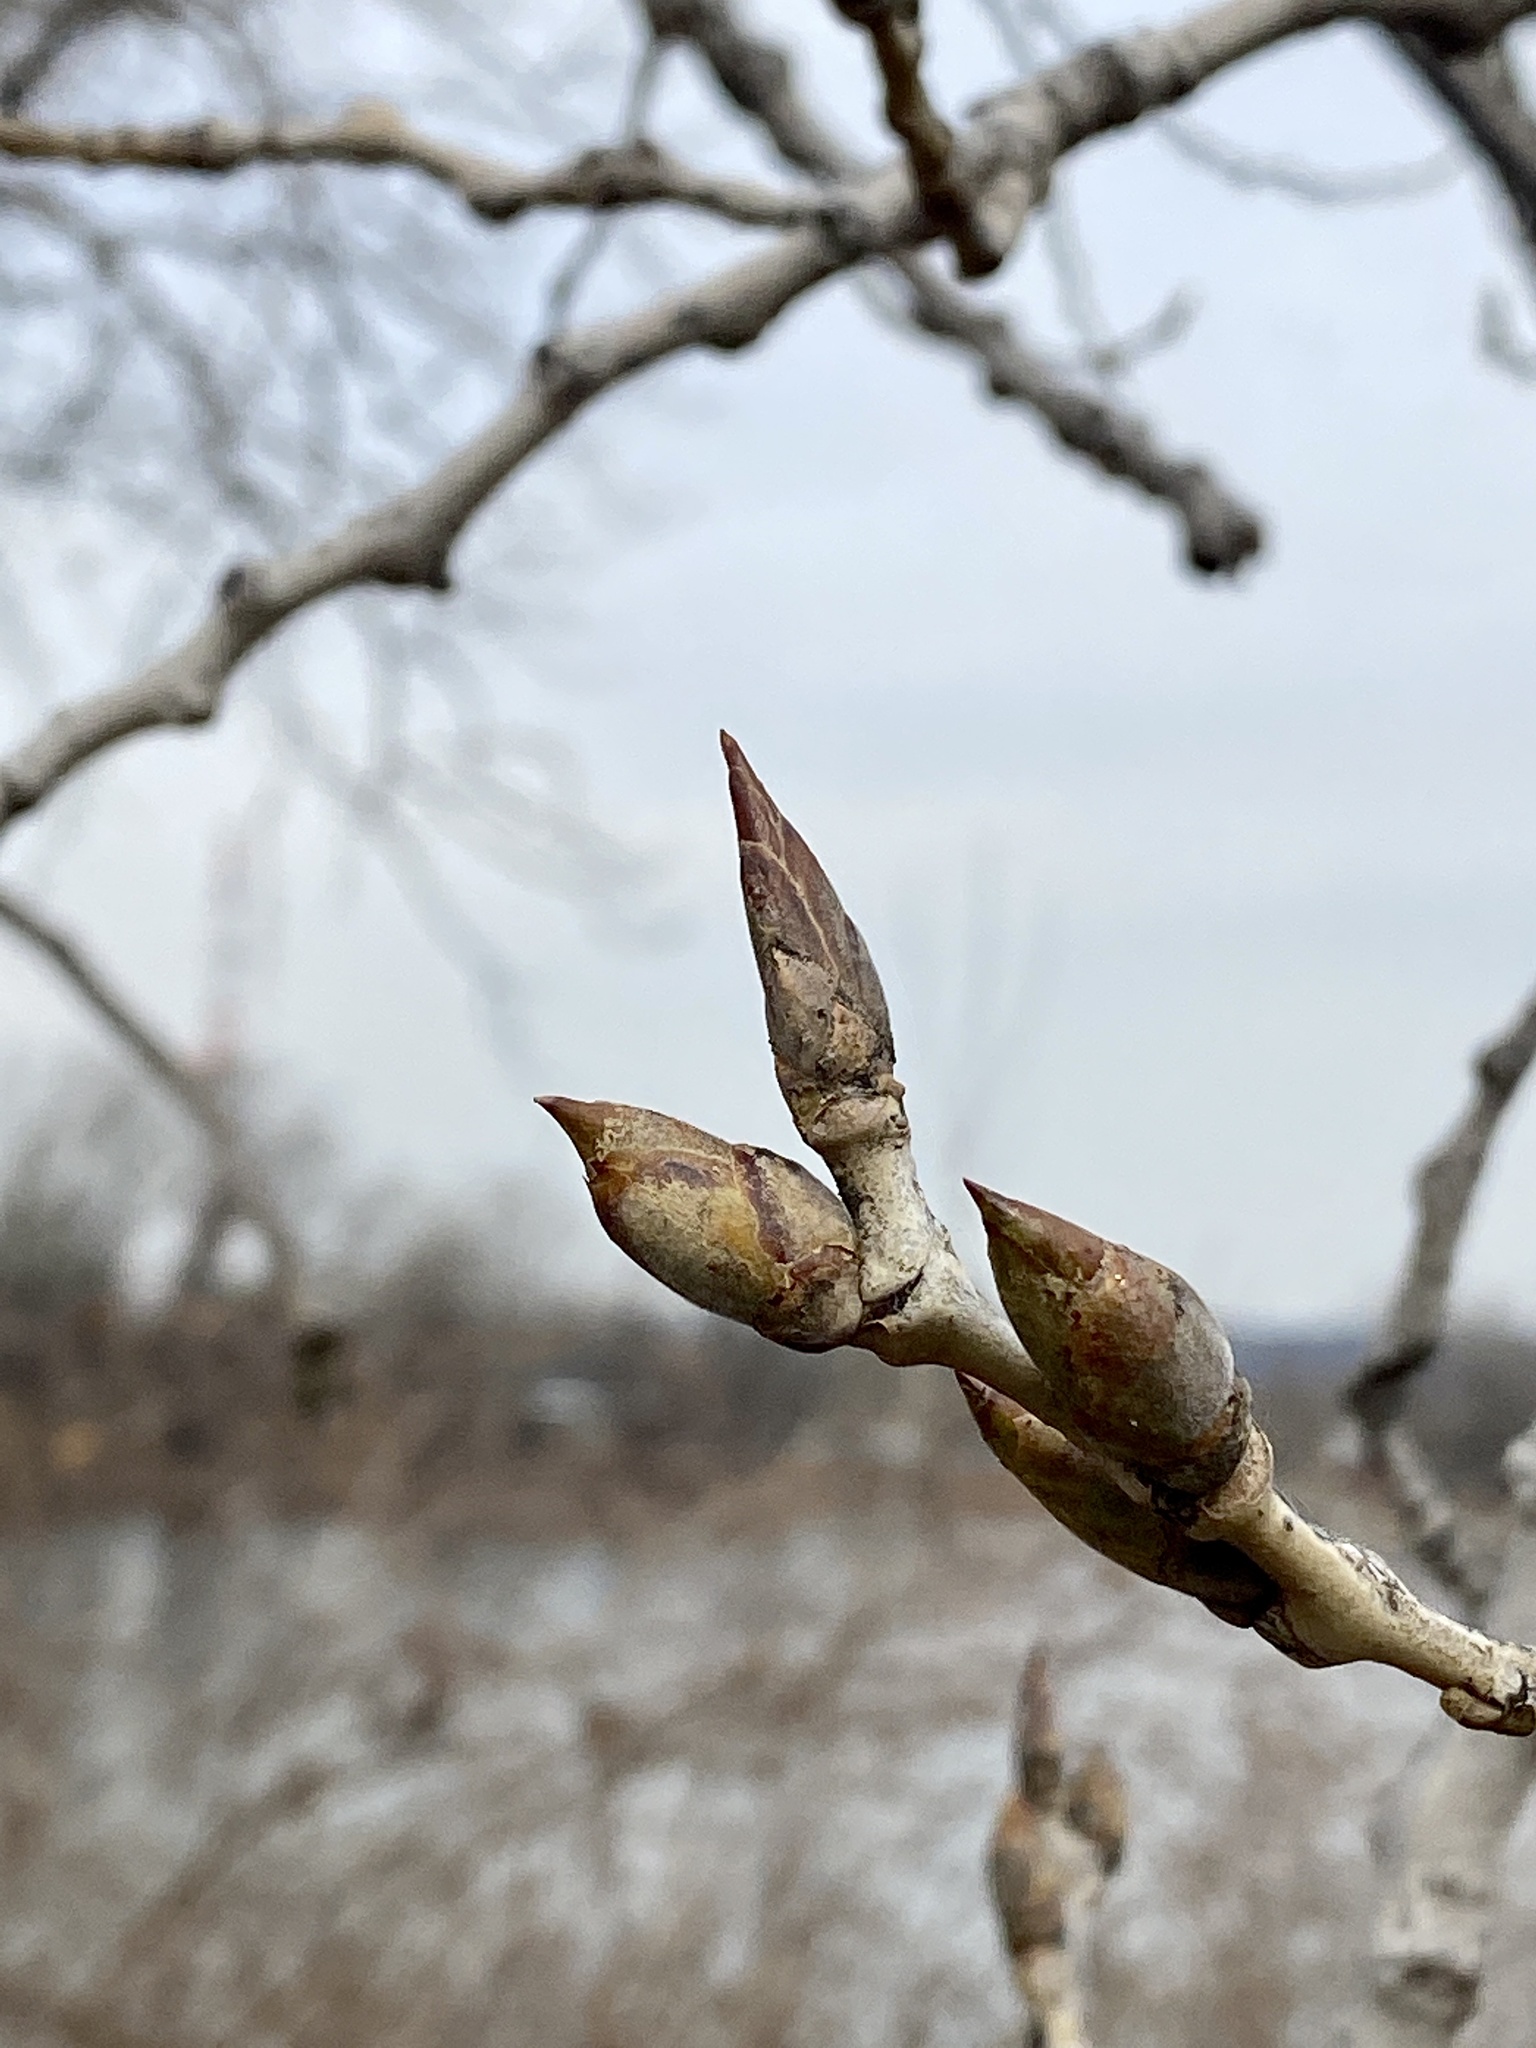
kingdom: Plantae
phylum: Tracheophyta
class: Magnoliopsida
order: Malpighiales
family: Salicaceae
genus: Populus
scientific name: Populus deltoides
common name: Eastern cottonwood
